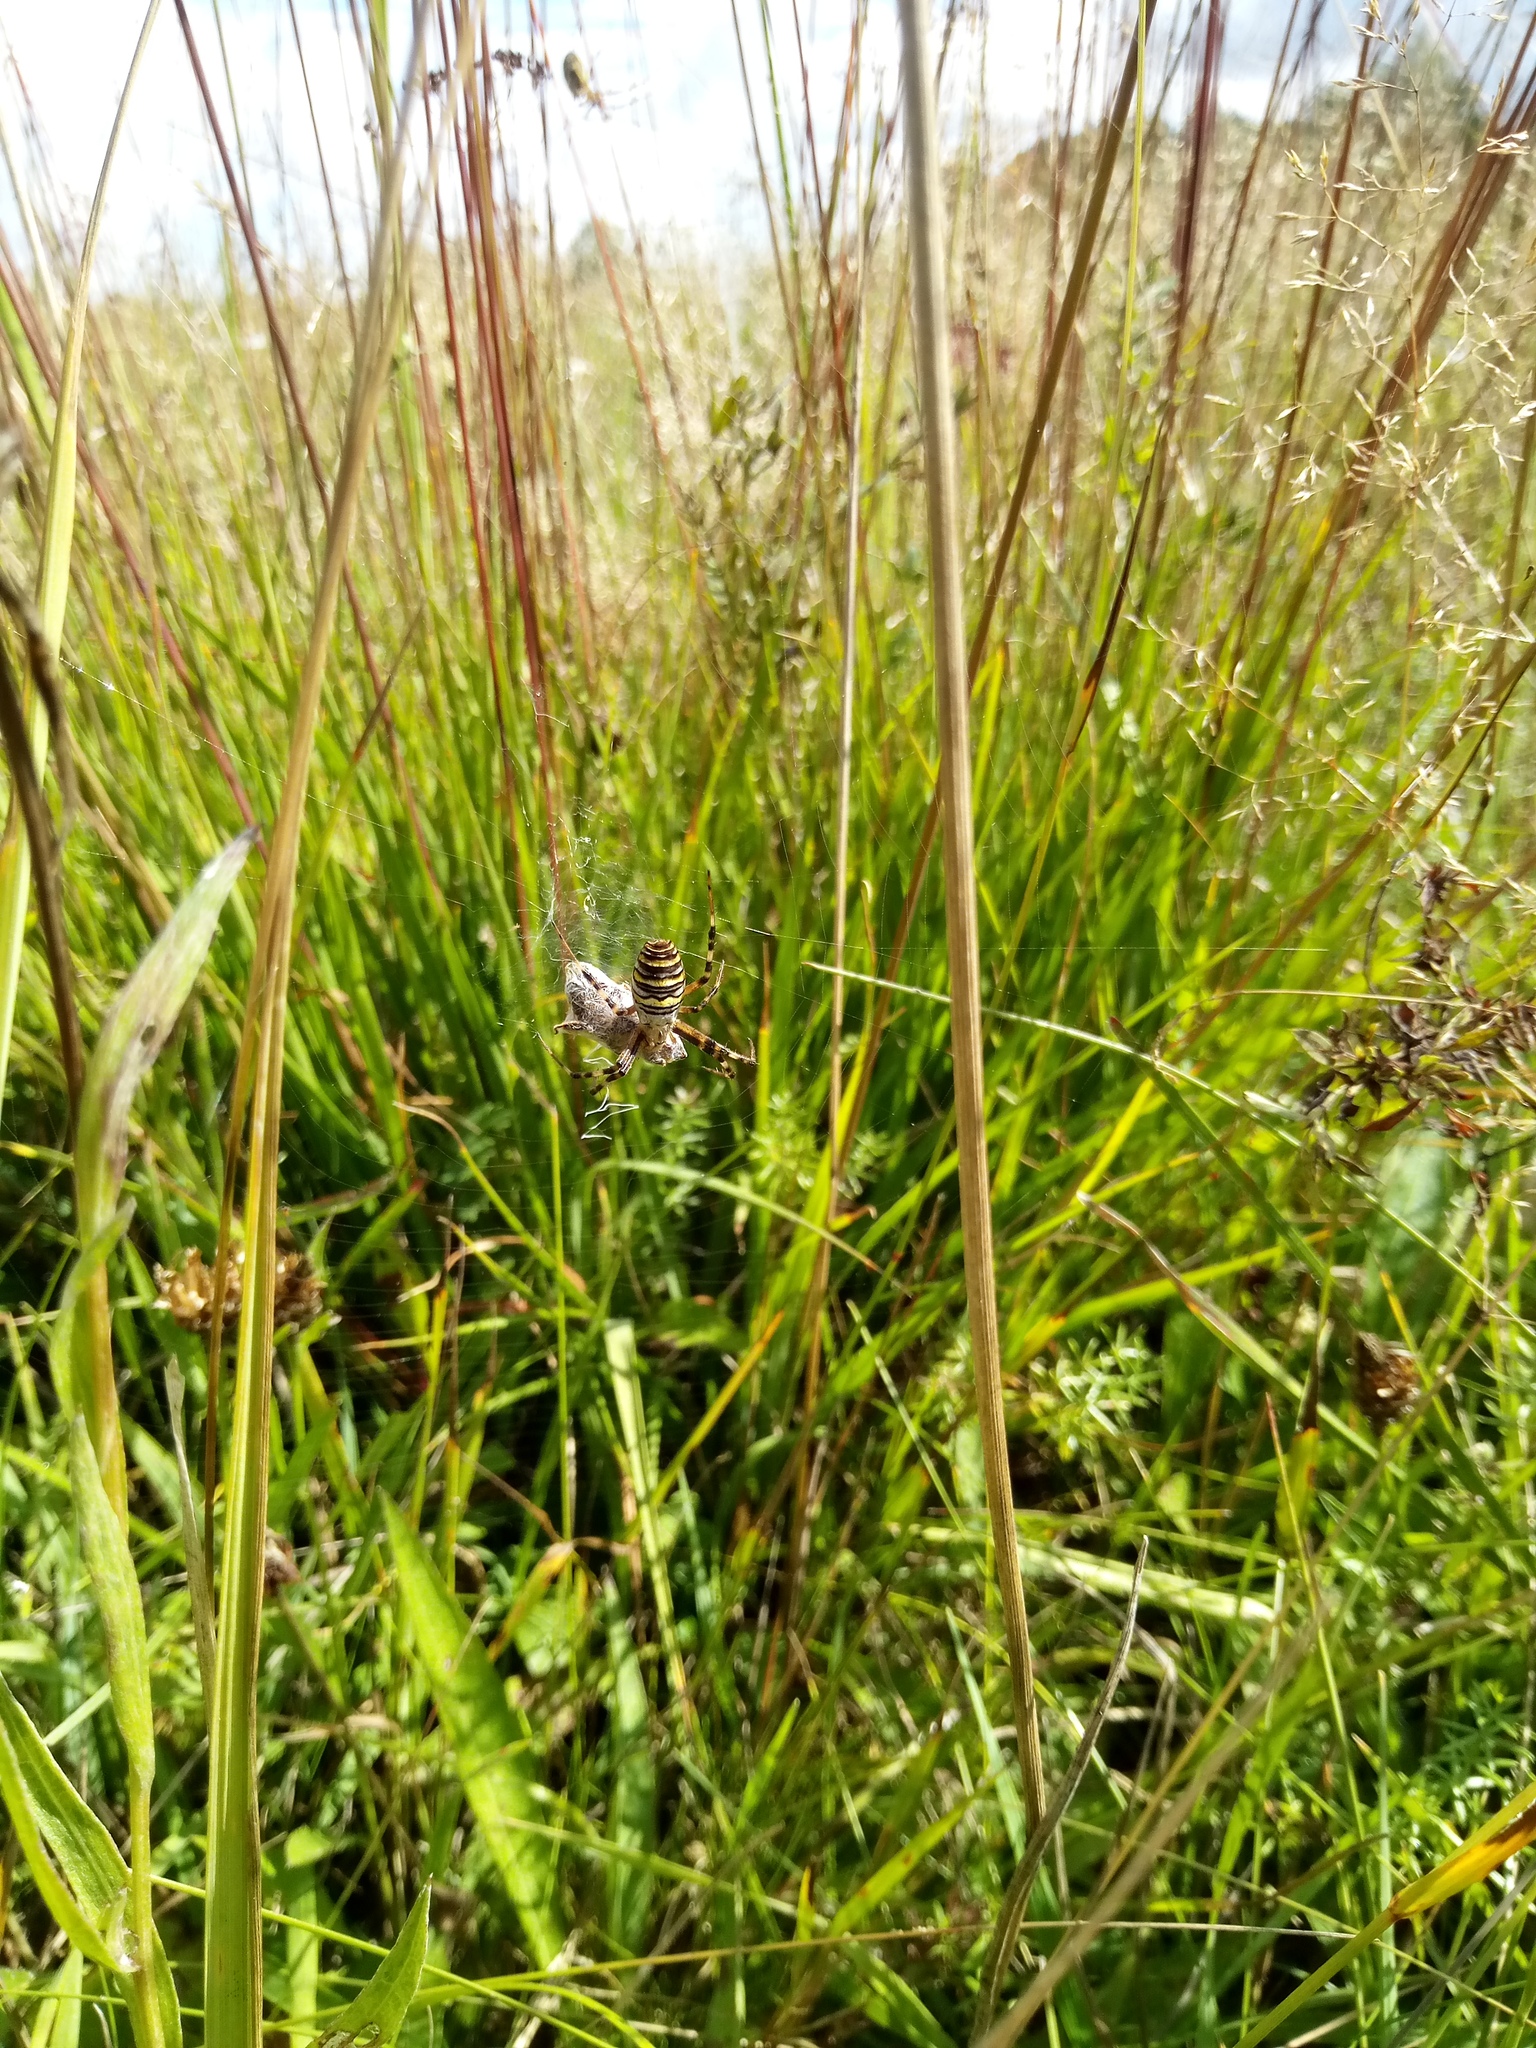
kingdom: Animalia
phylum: Arthropoda
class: Arachnida
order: Araneae
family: Araneidae
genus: Argiope
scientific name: Argiope bruennichi
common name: Wasp spider
